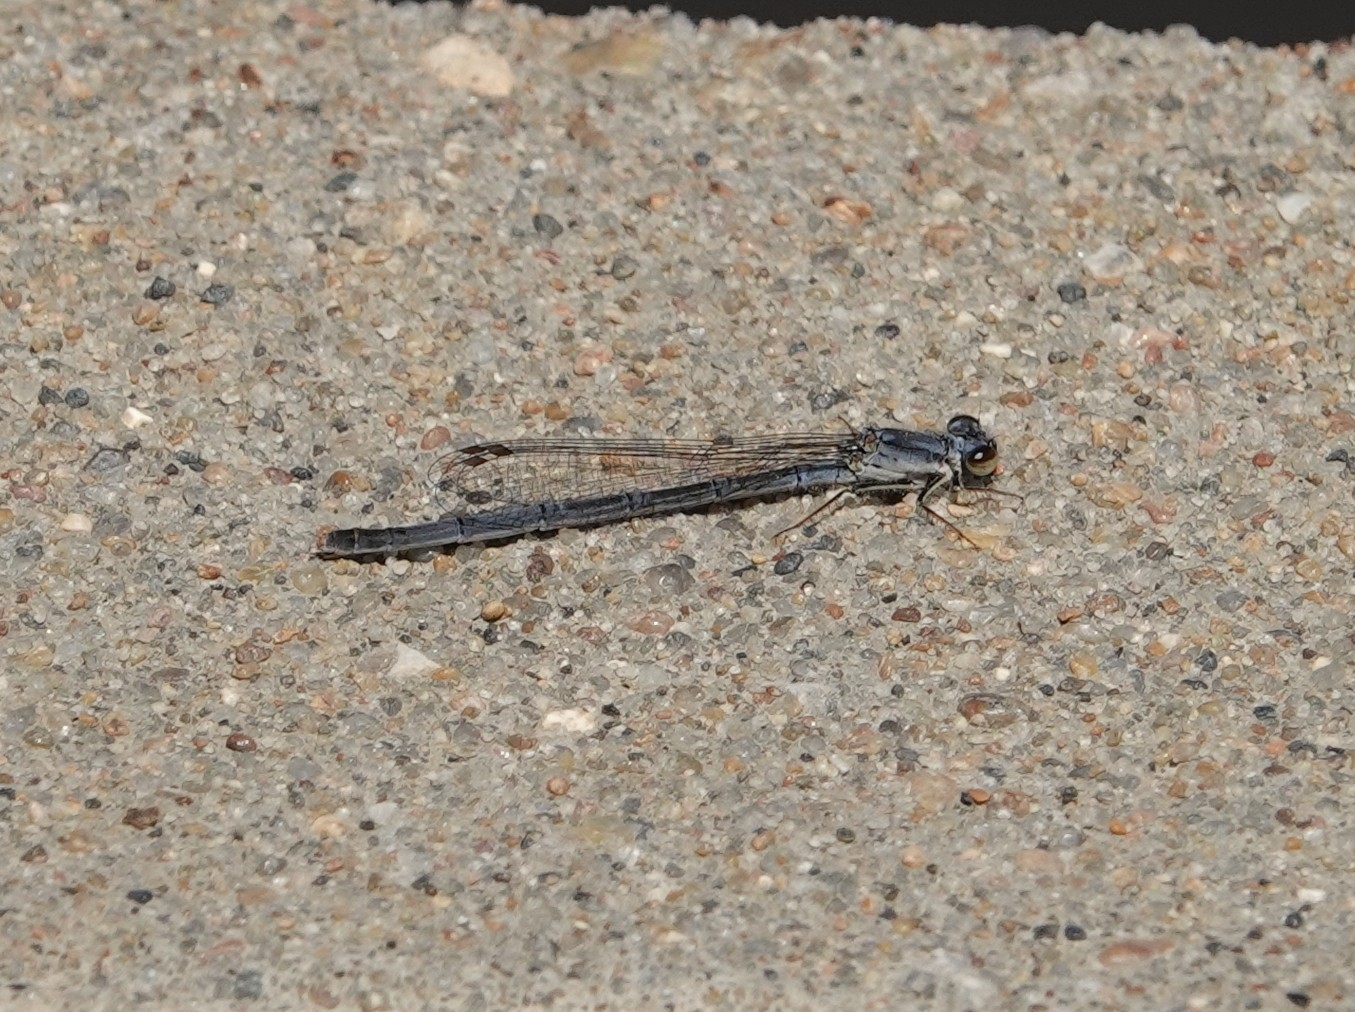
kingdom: Animalia
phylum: Arthropoda
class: Insecta
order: Odonata
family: Coenagrionidae
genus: Ischnura
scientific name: Ischnura posita
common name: Fragile forktail
